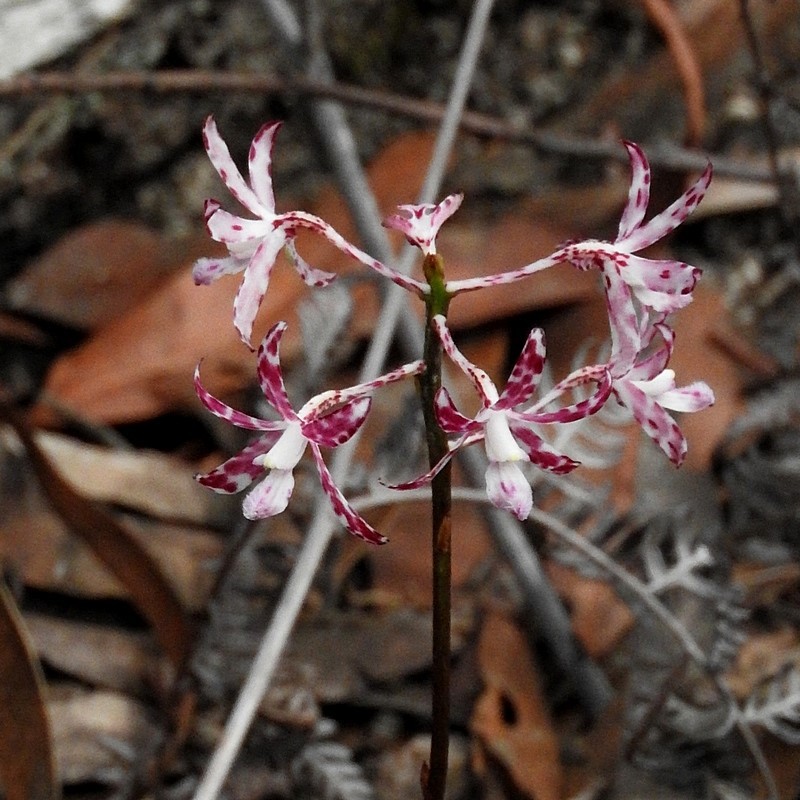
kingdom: Plantae
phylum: Tracheophyta
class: Liliopsida
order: Asparagales
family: Orchidaceae
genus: Dipodium
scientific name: Dipodium variegatum
